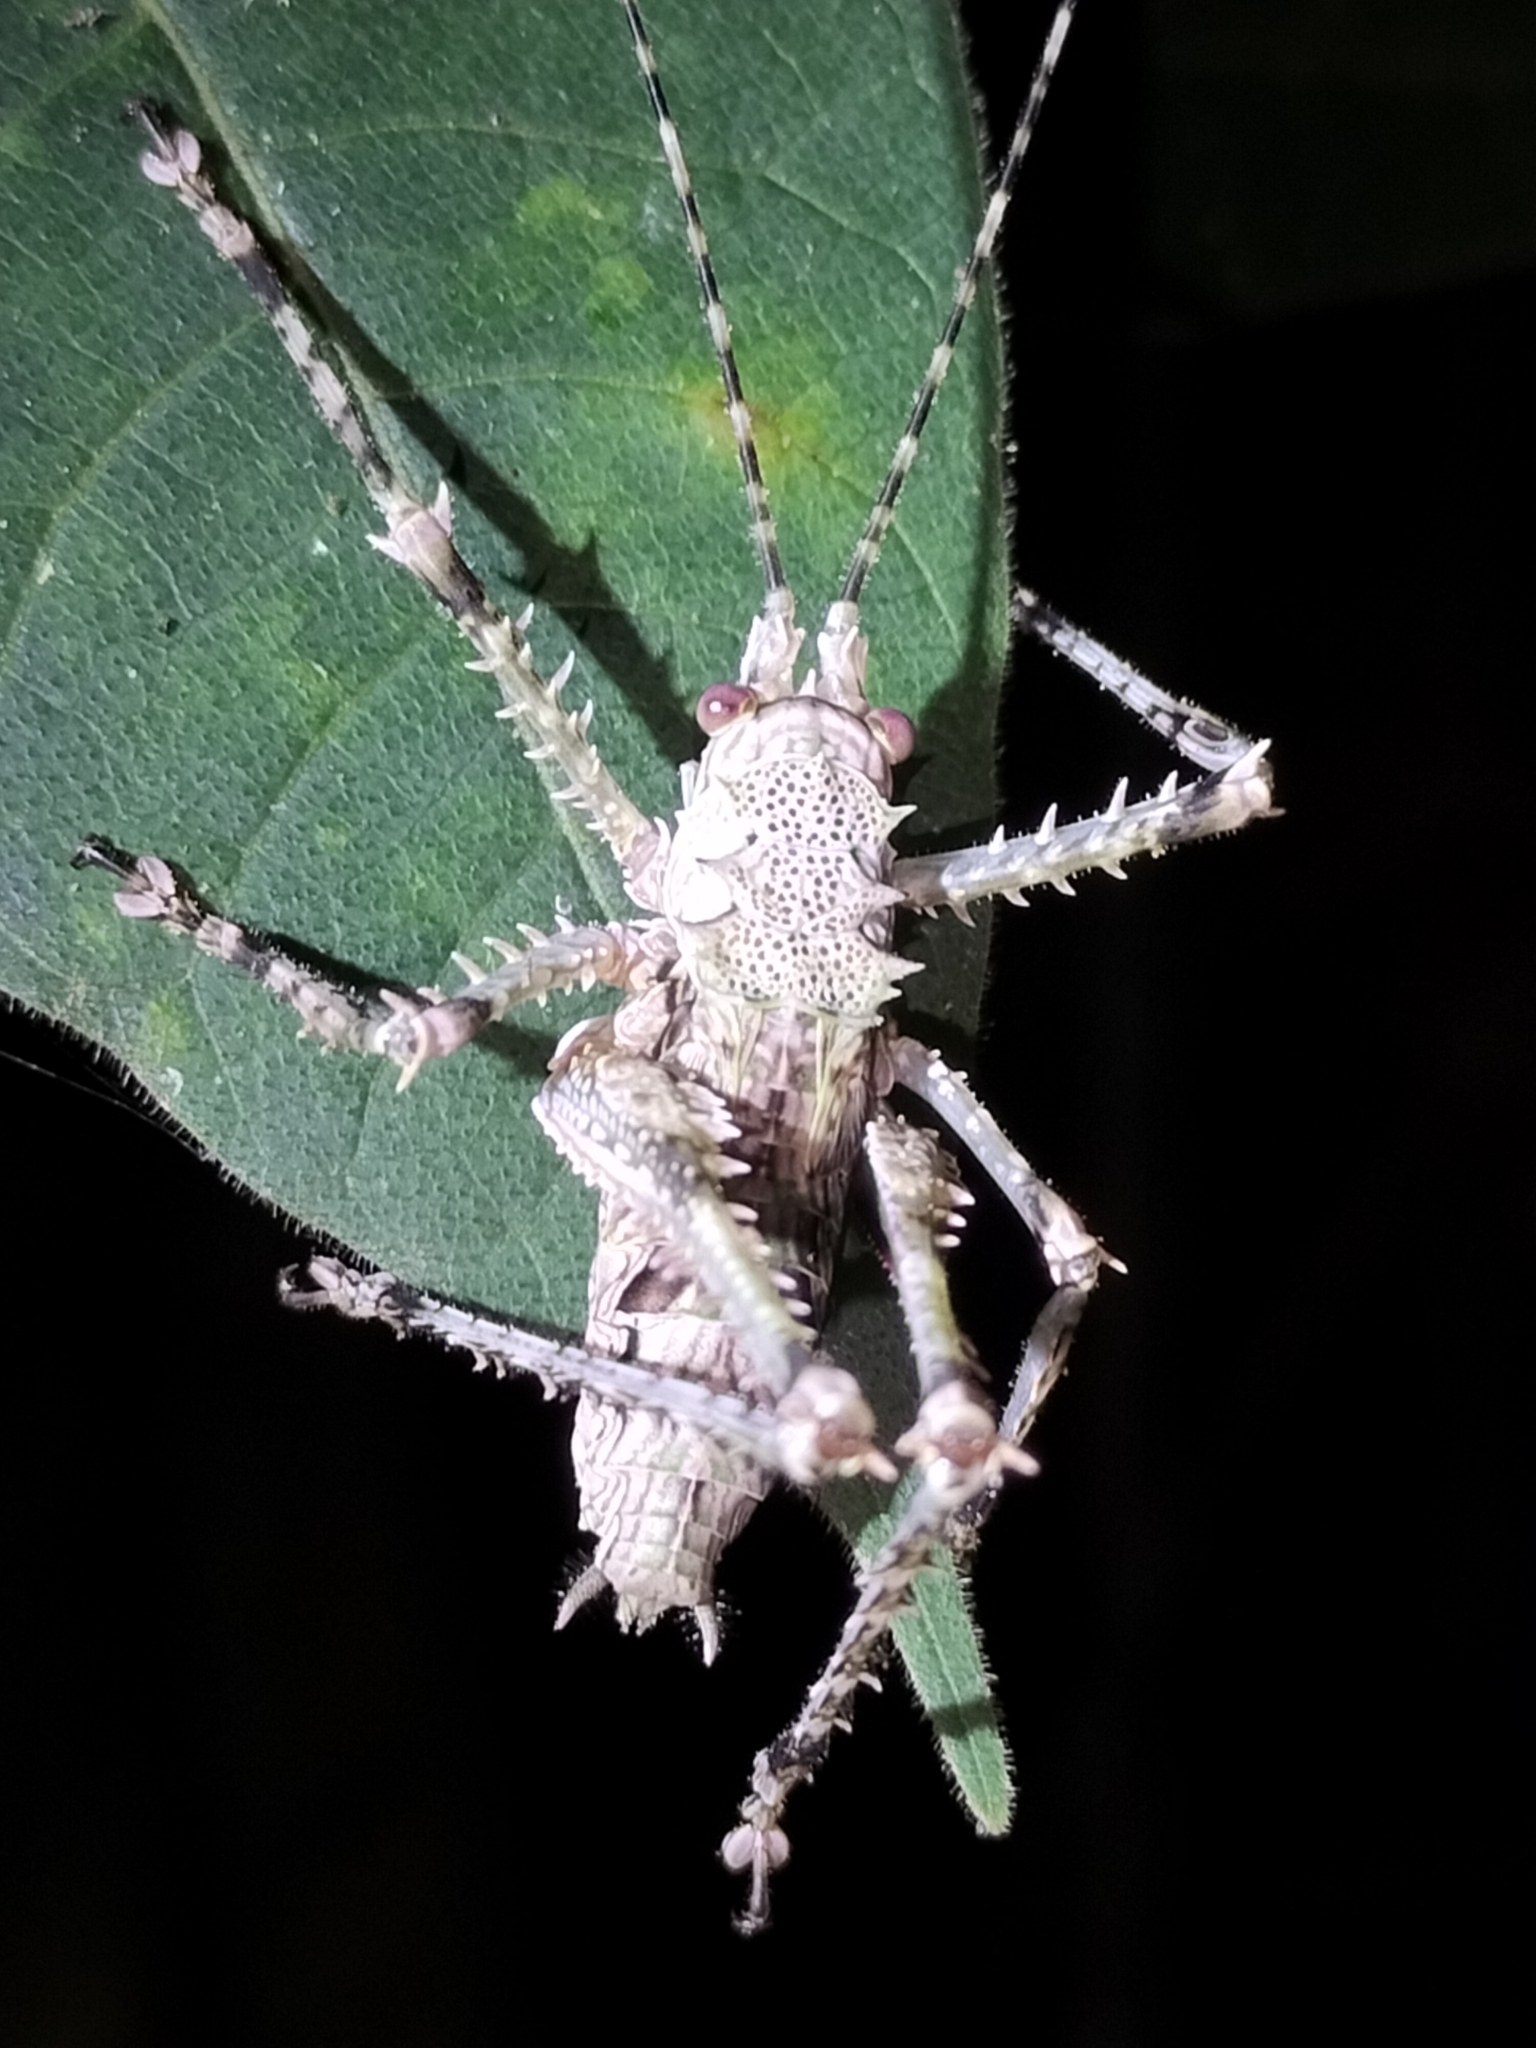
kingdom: Animalia
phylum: Arthropoda
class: Insecta
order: Orthoptera
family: Tettigoniidae
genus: Phricta
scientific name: Phricta spinosa
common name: Giant spiny forest katydid
